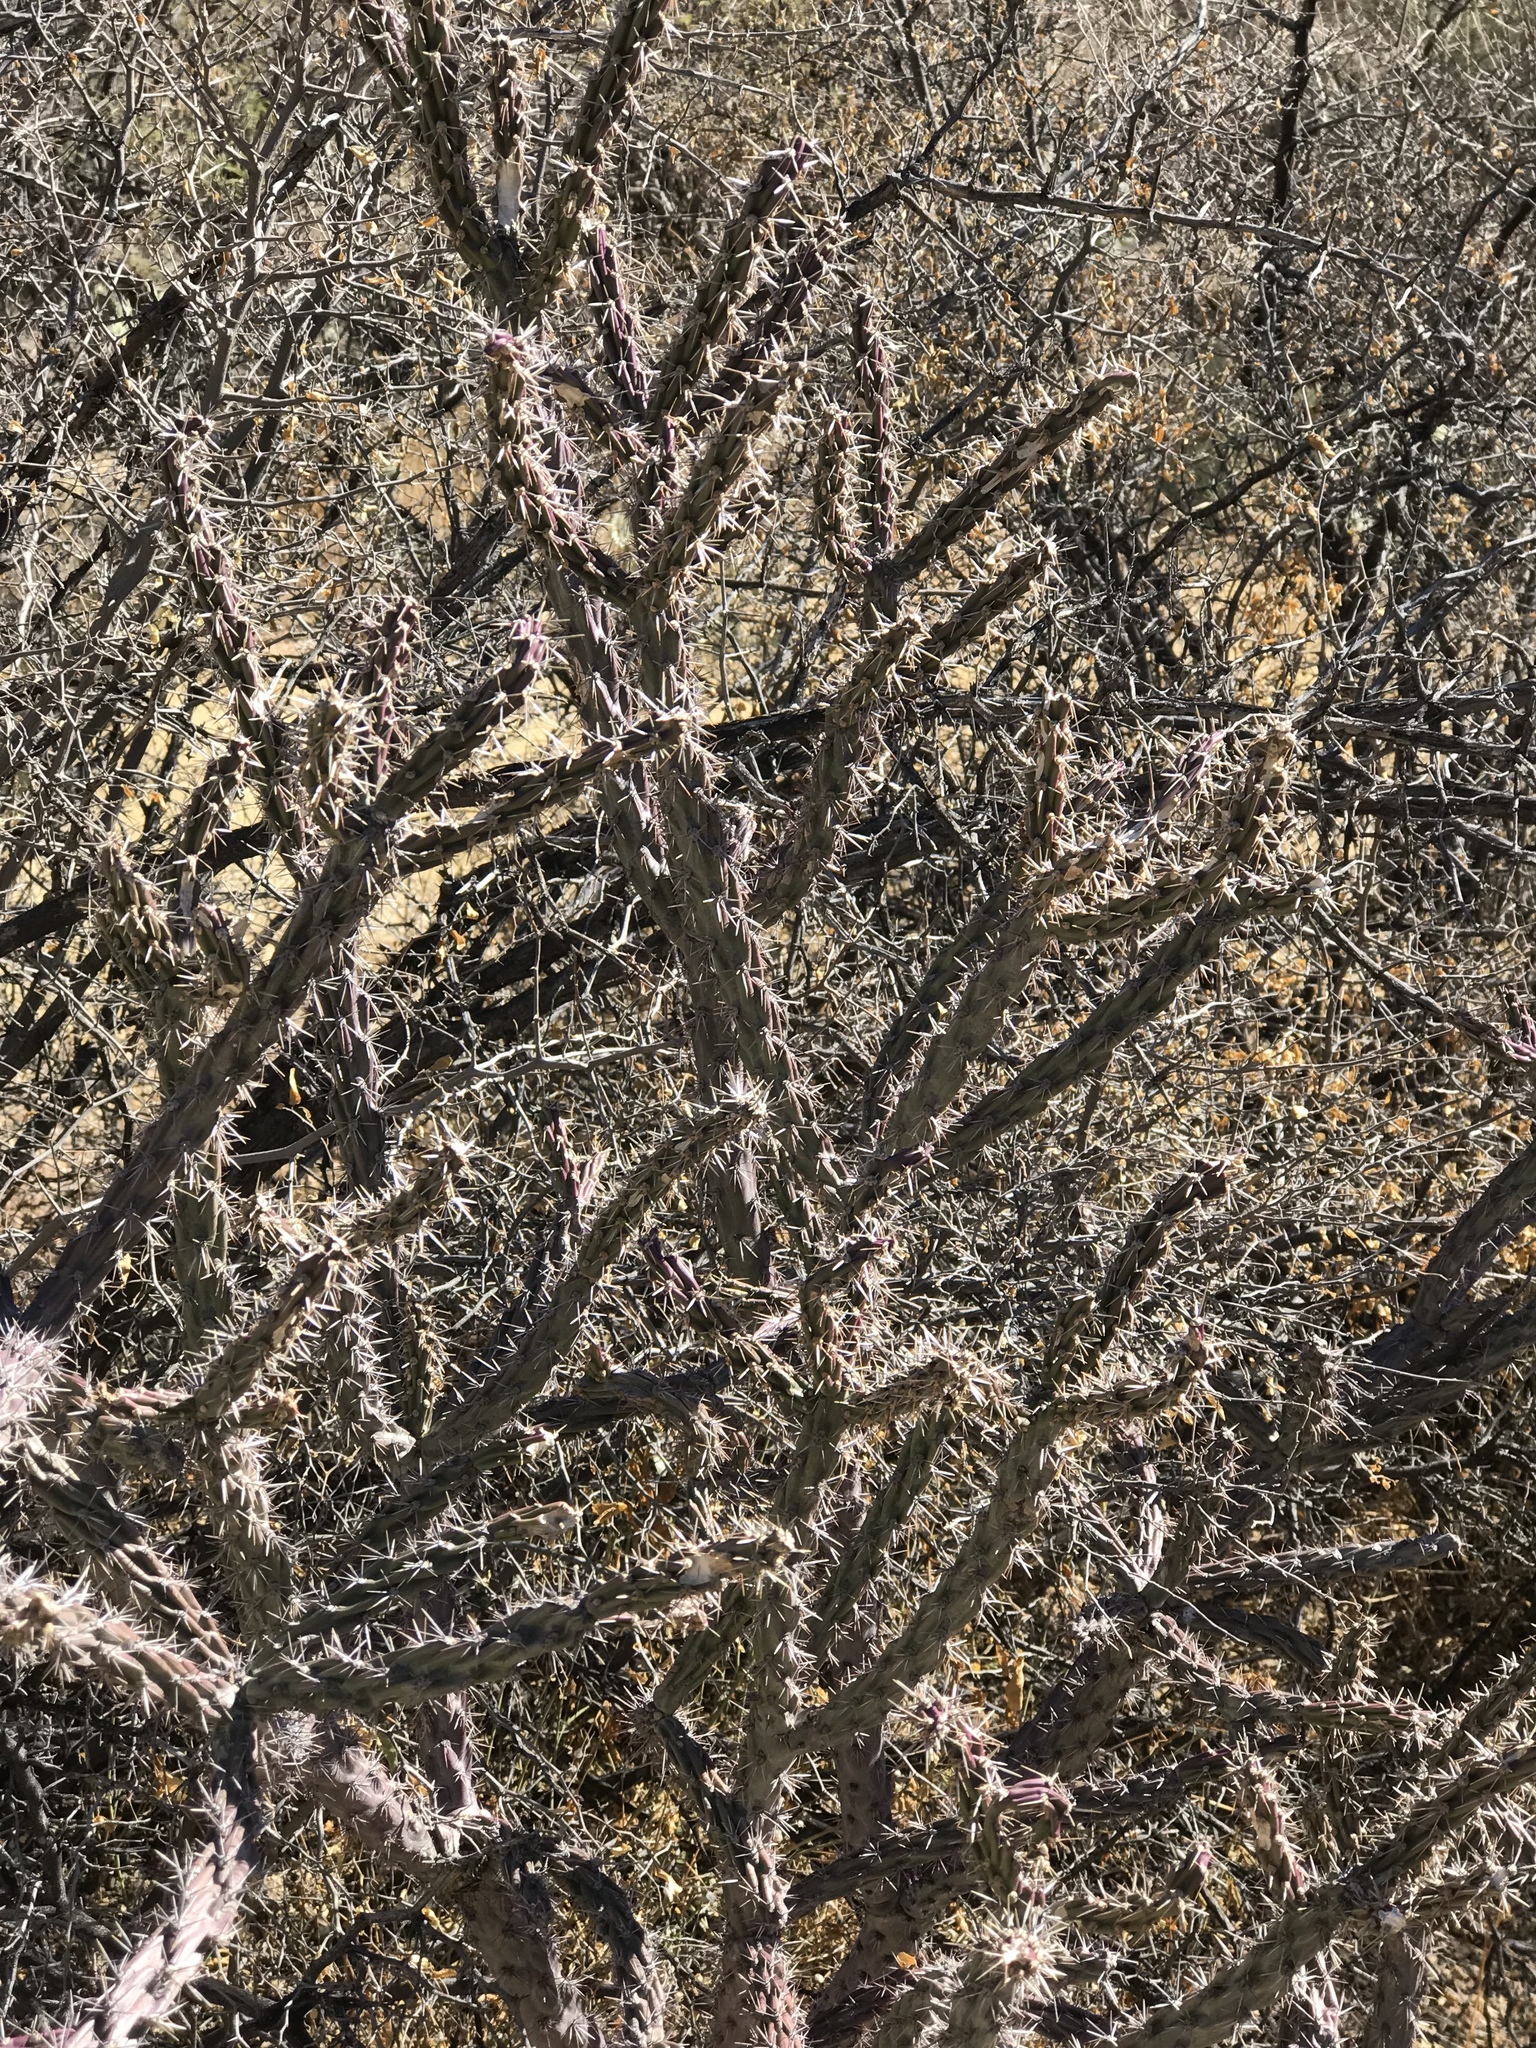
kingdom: Plantae
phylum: Tracheophyta
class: Magnoliopsida
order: Caryophyllales
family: Cactaceae
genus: Cylindropuntia
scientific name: Cylindropuntia thurberi
